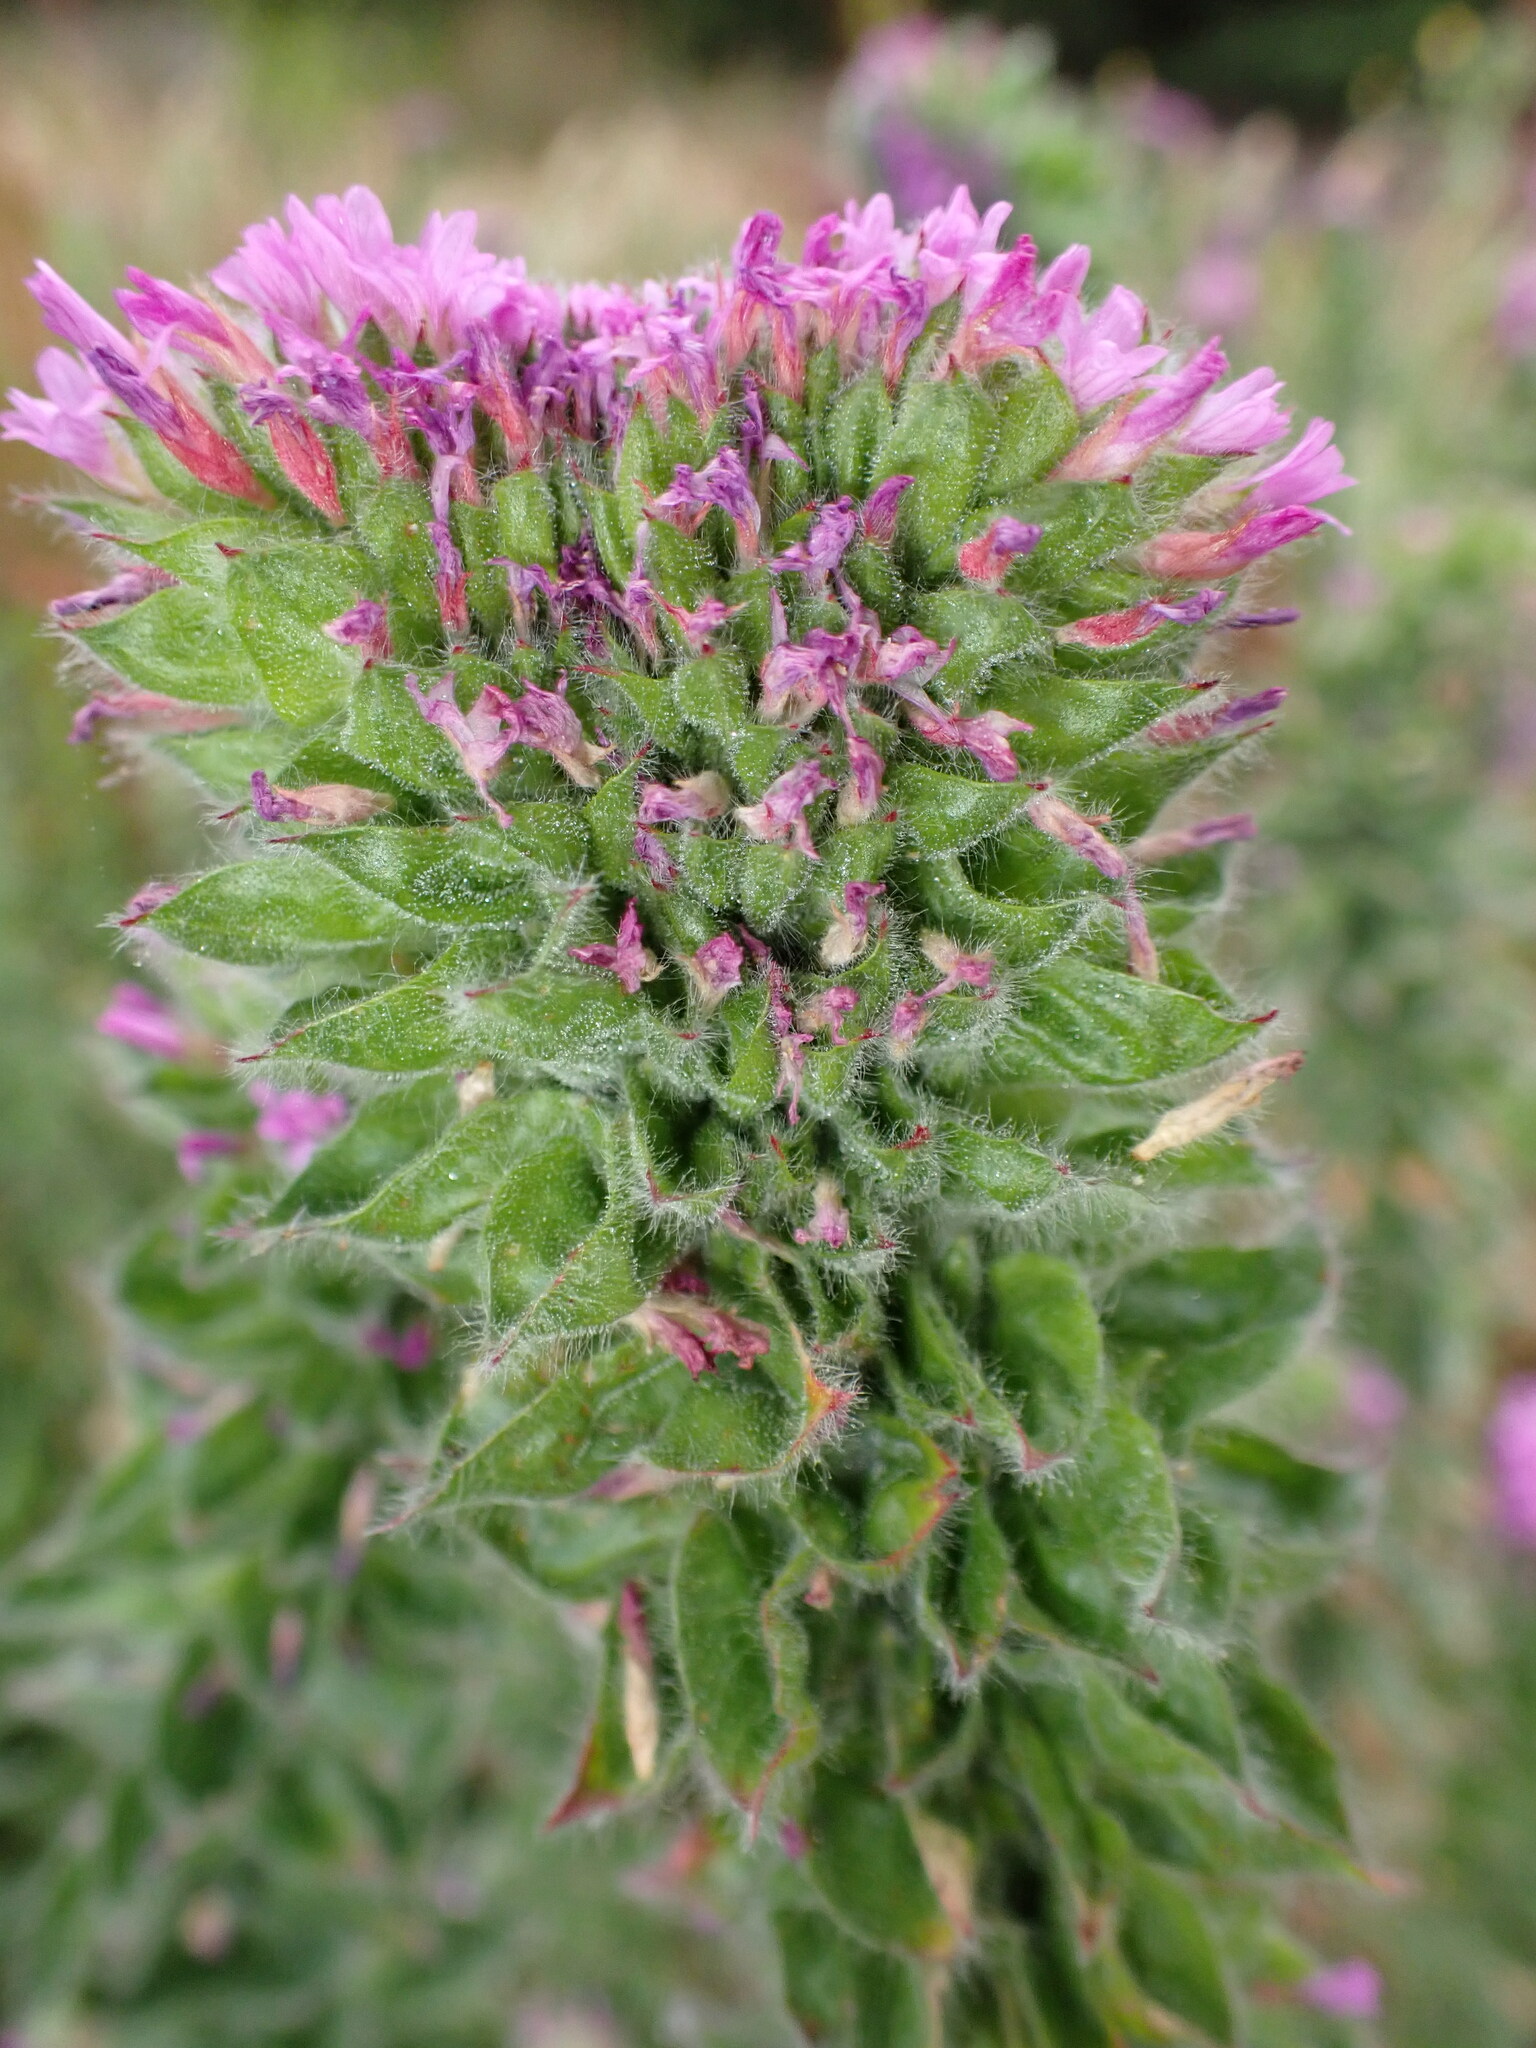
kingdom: Plantae
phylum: Tracheophyta
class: Magnoliopsida
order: Myrtales
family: Onagraceae
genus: Epilobium
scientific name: Epilobium densiflorum
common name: Dense spike-primrose
